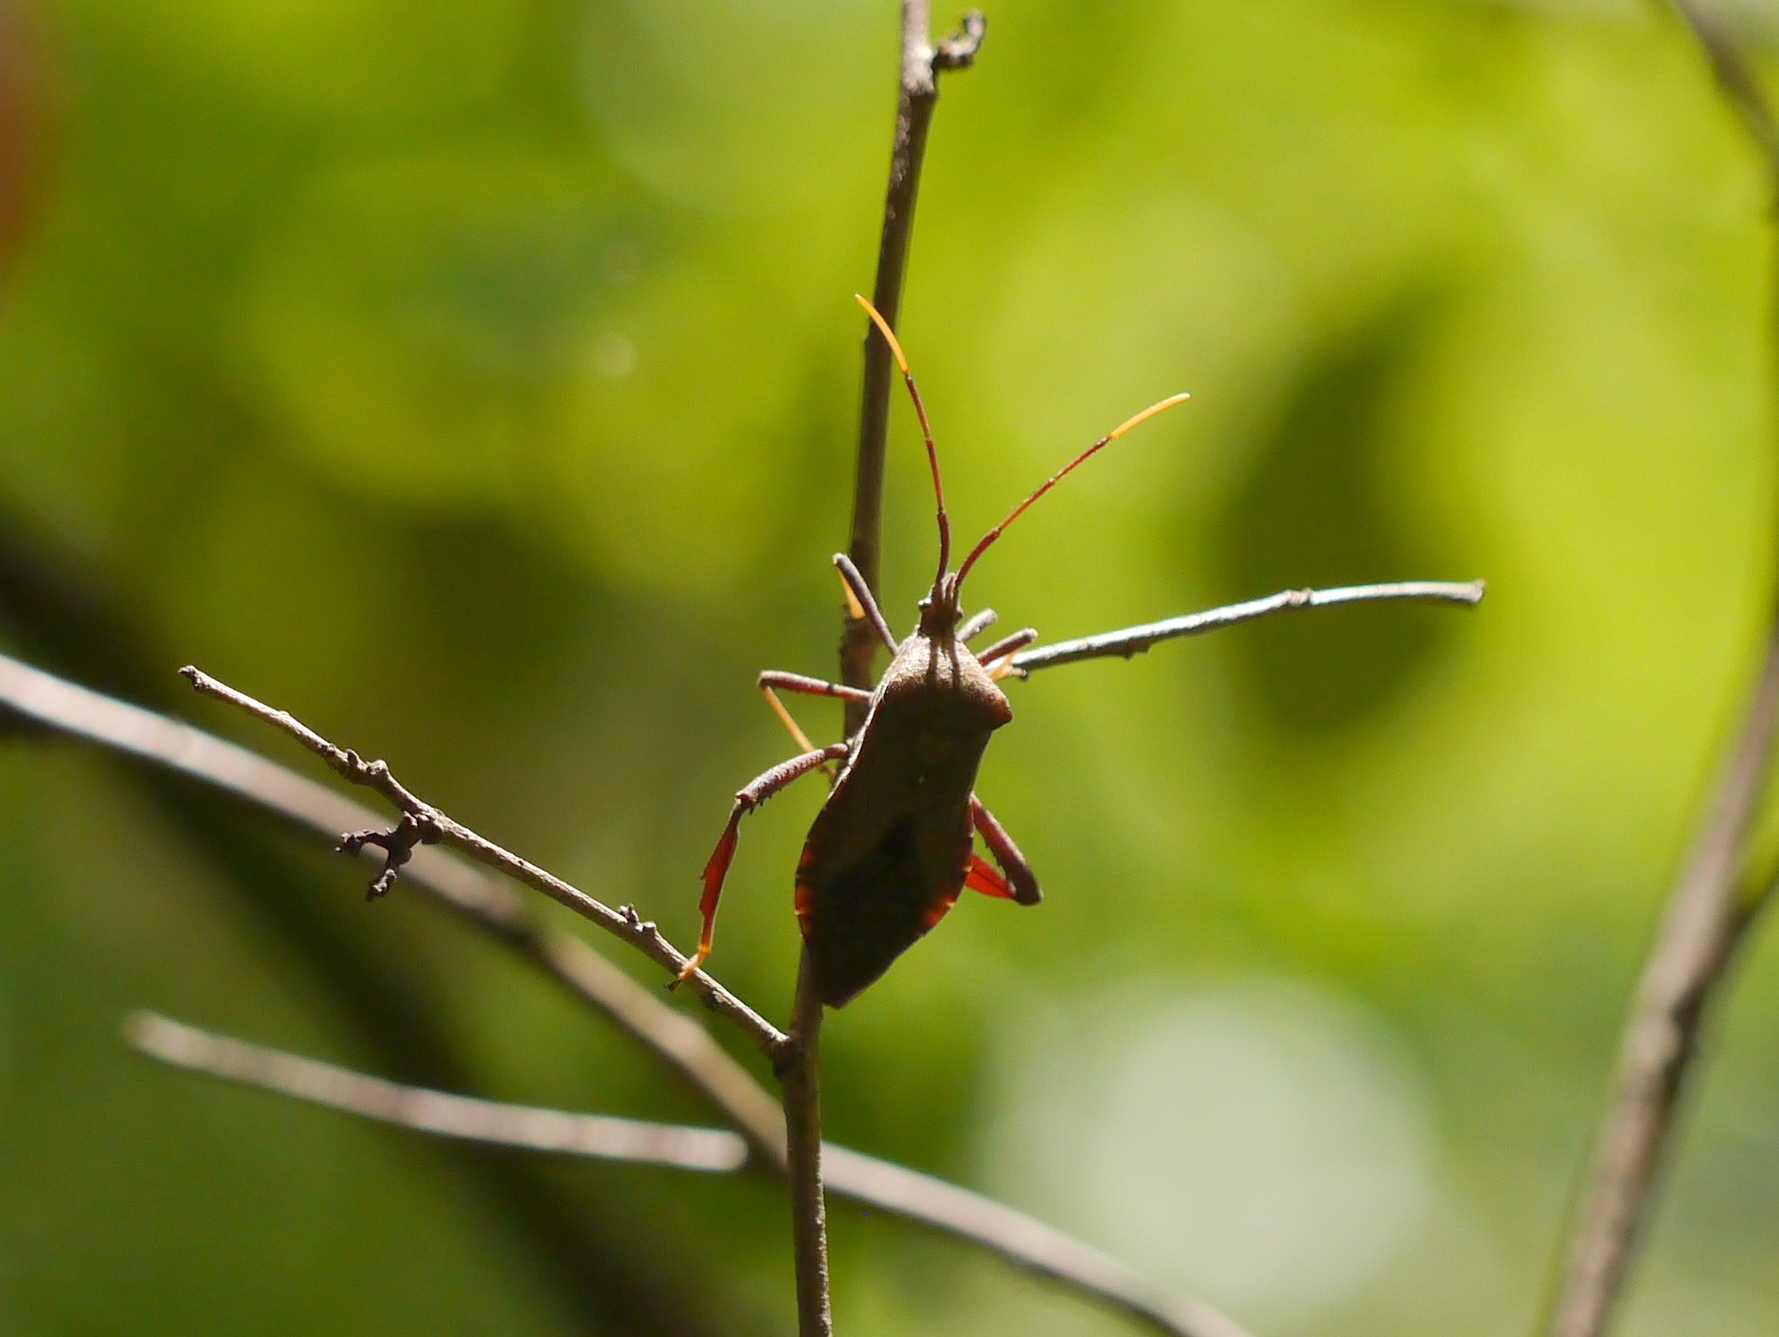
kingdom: Animalia
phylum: Arthropoda
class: Insecta
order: Hemiptera
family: Coreidae
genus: Acanthocephala
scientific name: Acanthocephala terminalis
